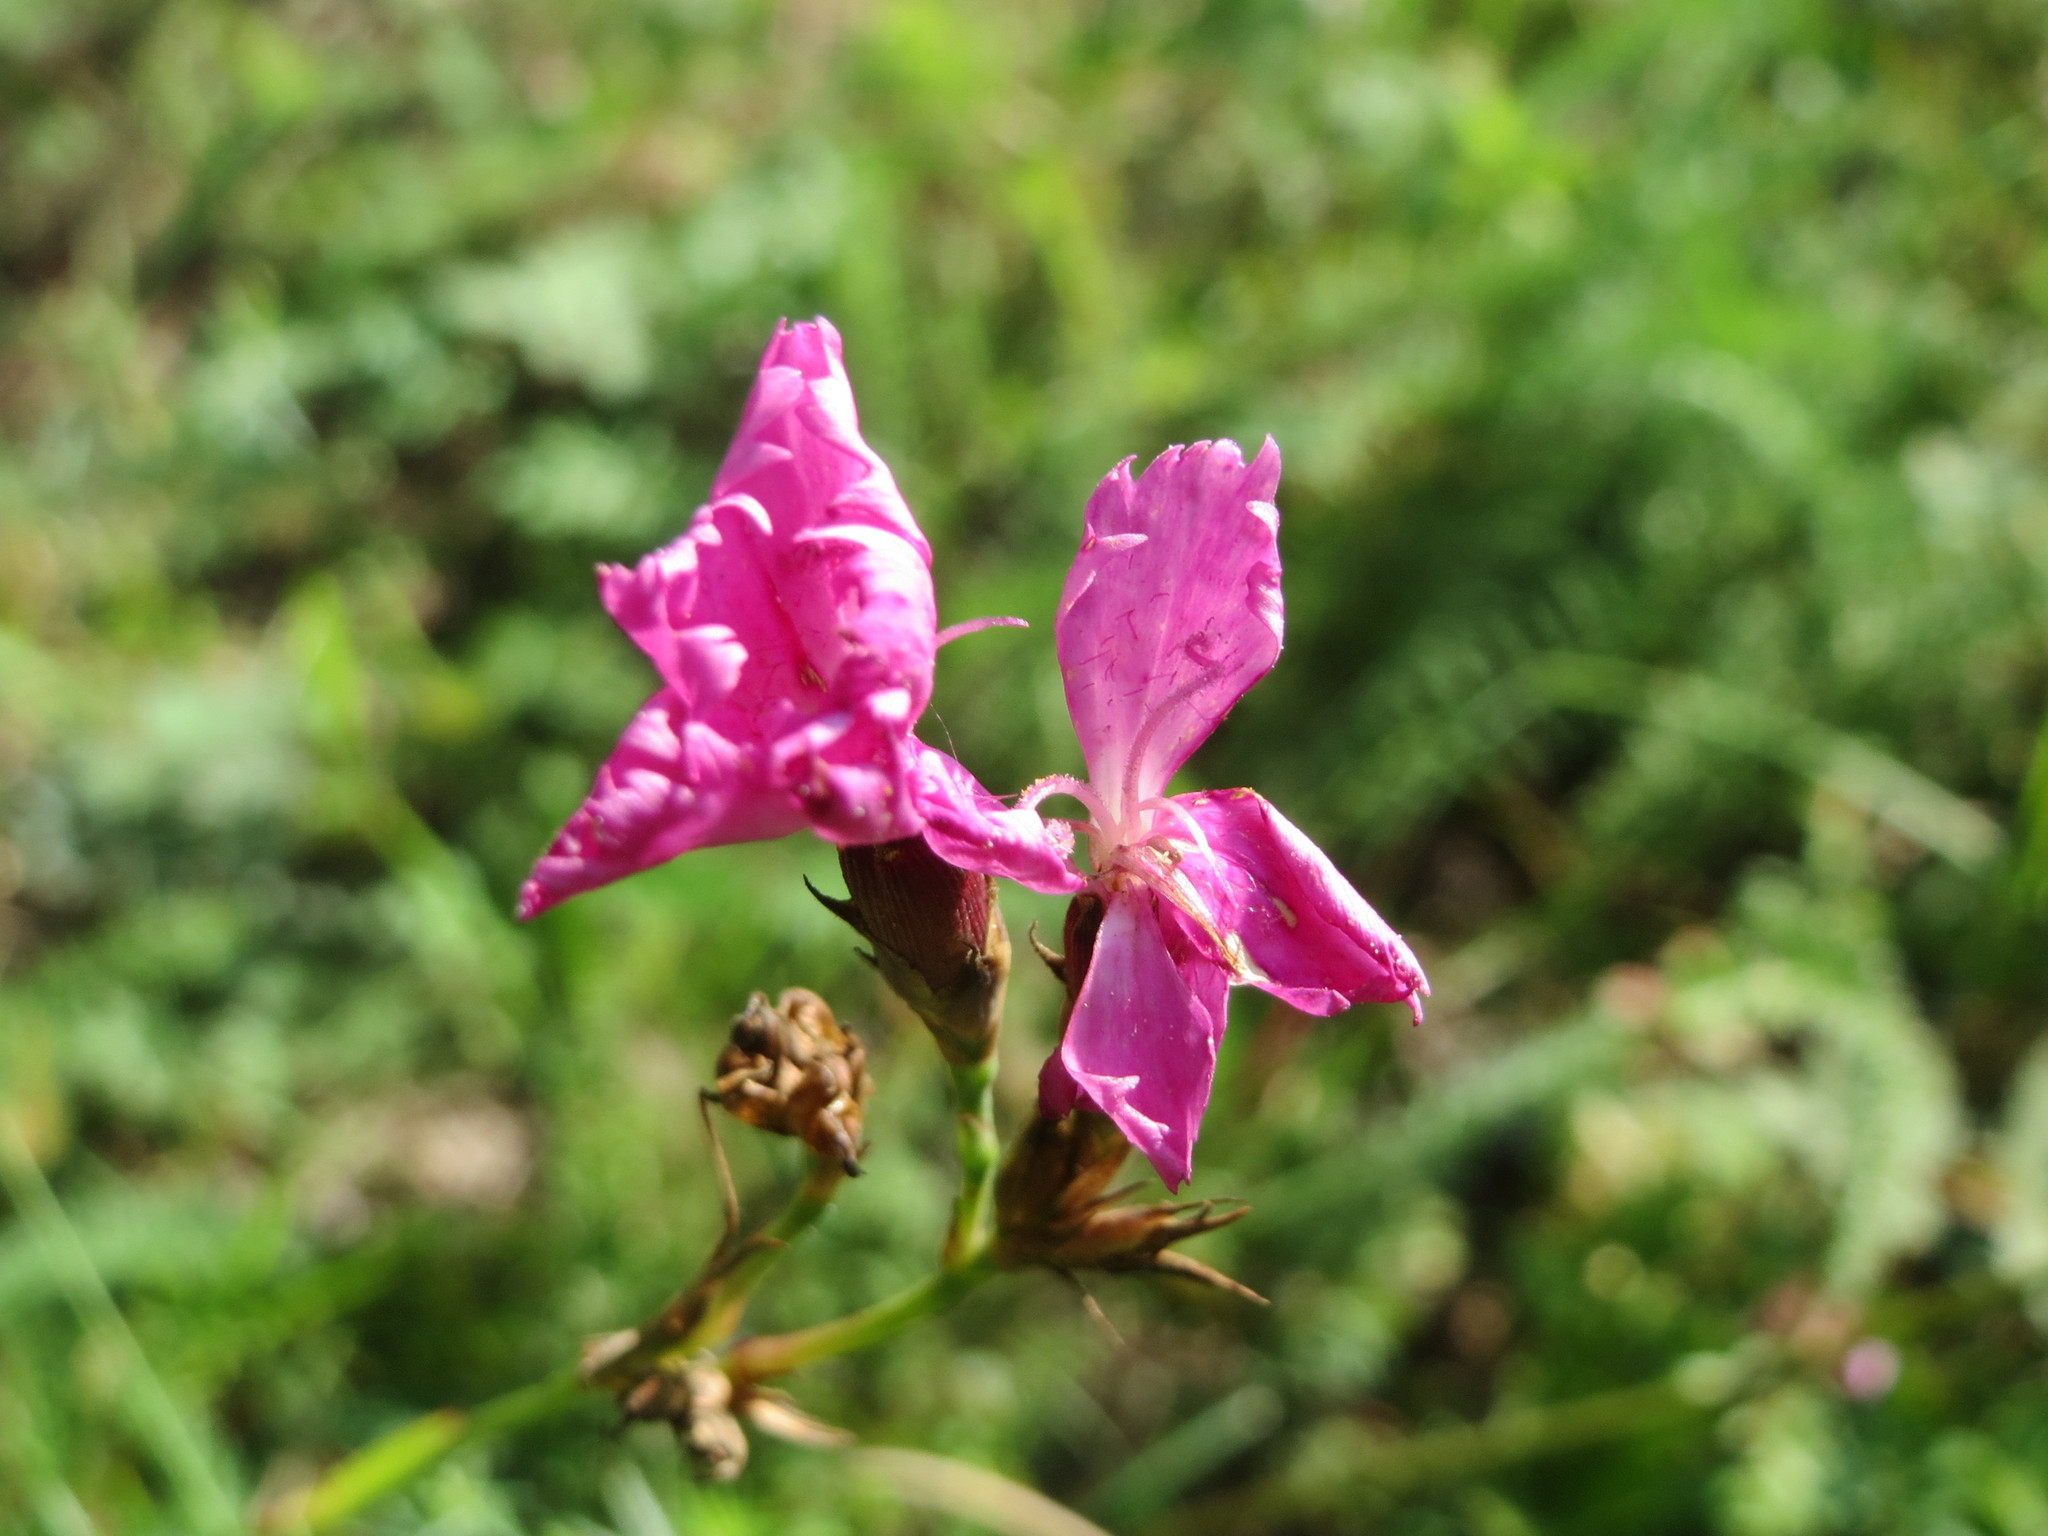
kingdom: Plantae
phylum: Tracheophyta
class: Magnoliopsida
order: Caryophyllales
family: Caryophyllaceae
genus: Dianthus
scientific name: Dianthus carthusianorum
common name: Carthusian pink
